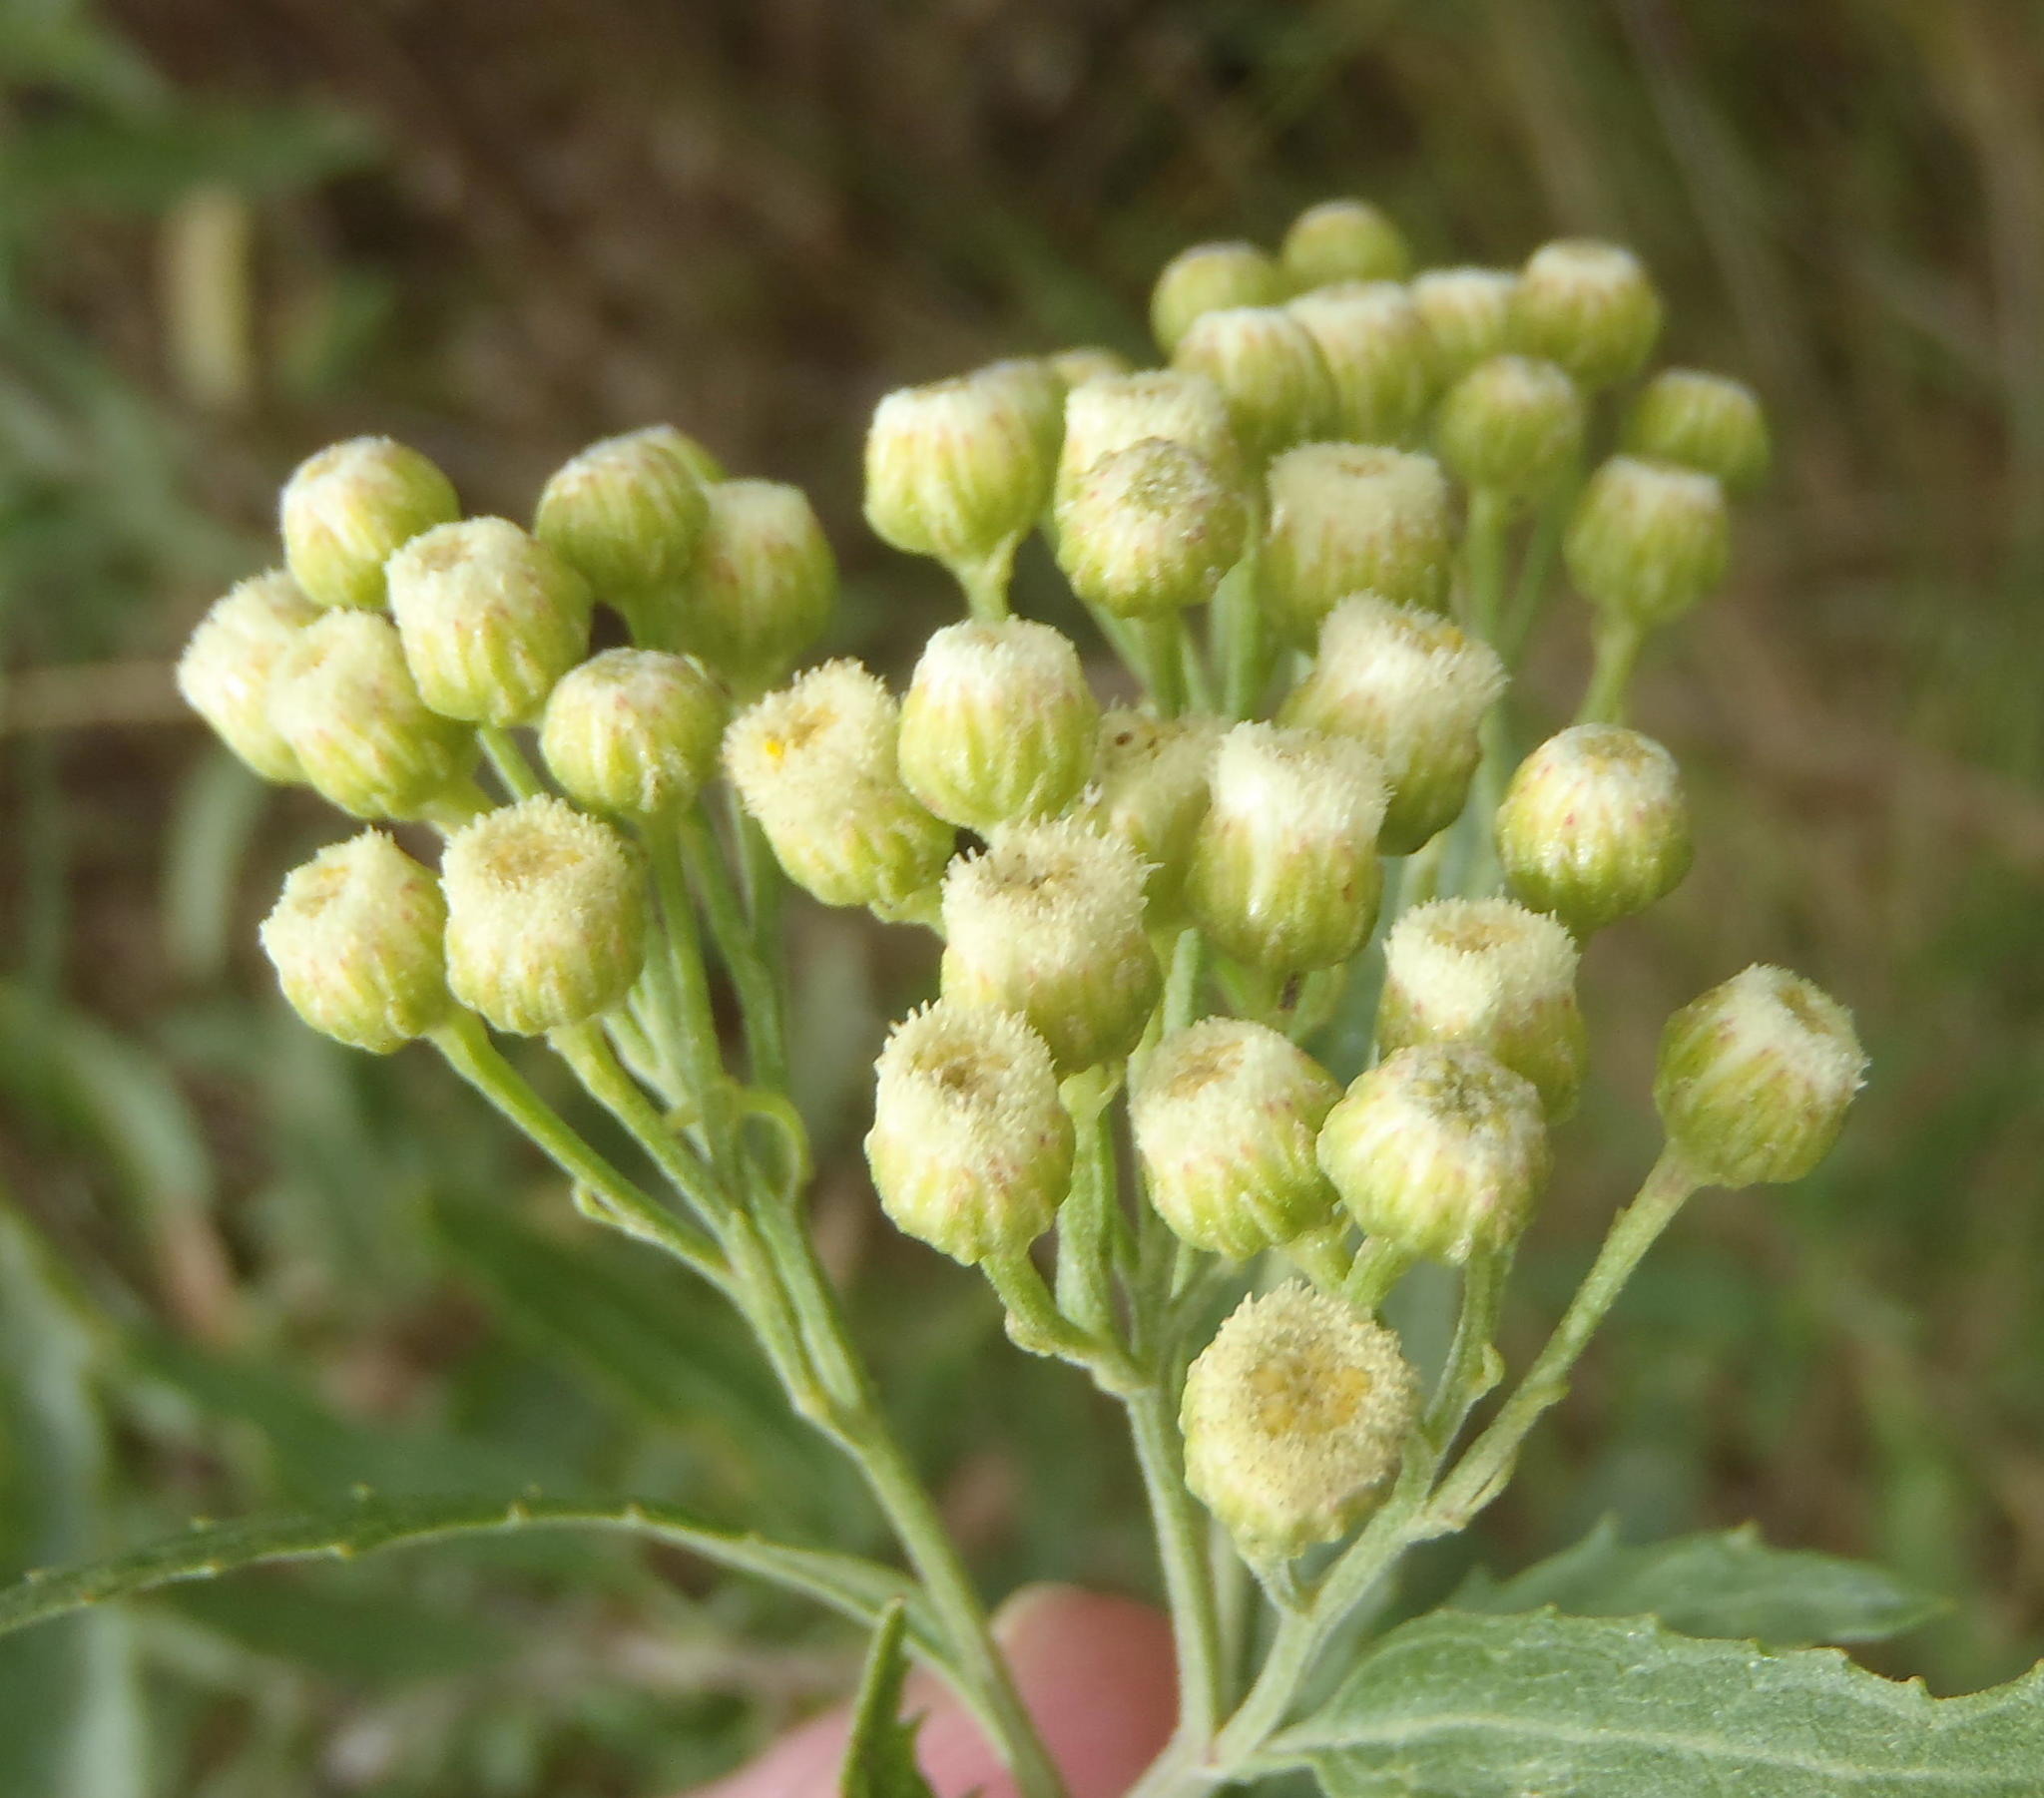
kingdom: Plantae
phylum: Tracheophyta
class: Magnoliopsida
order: Asterales
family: Asteraceae
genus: Nidorella
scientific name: Nidorella ivifolia
